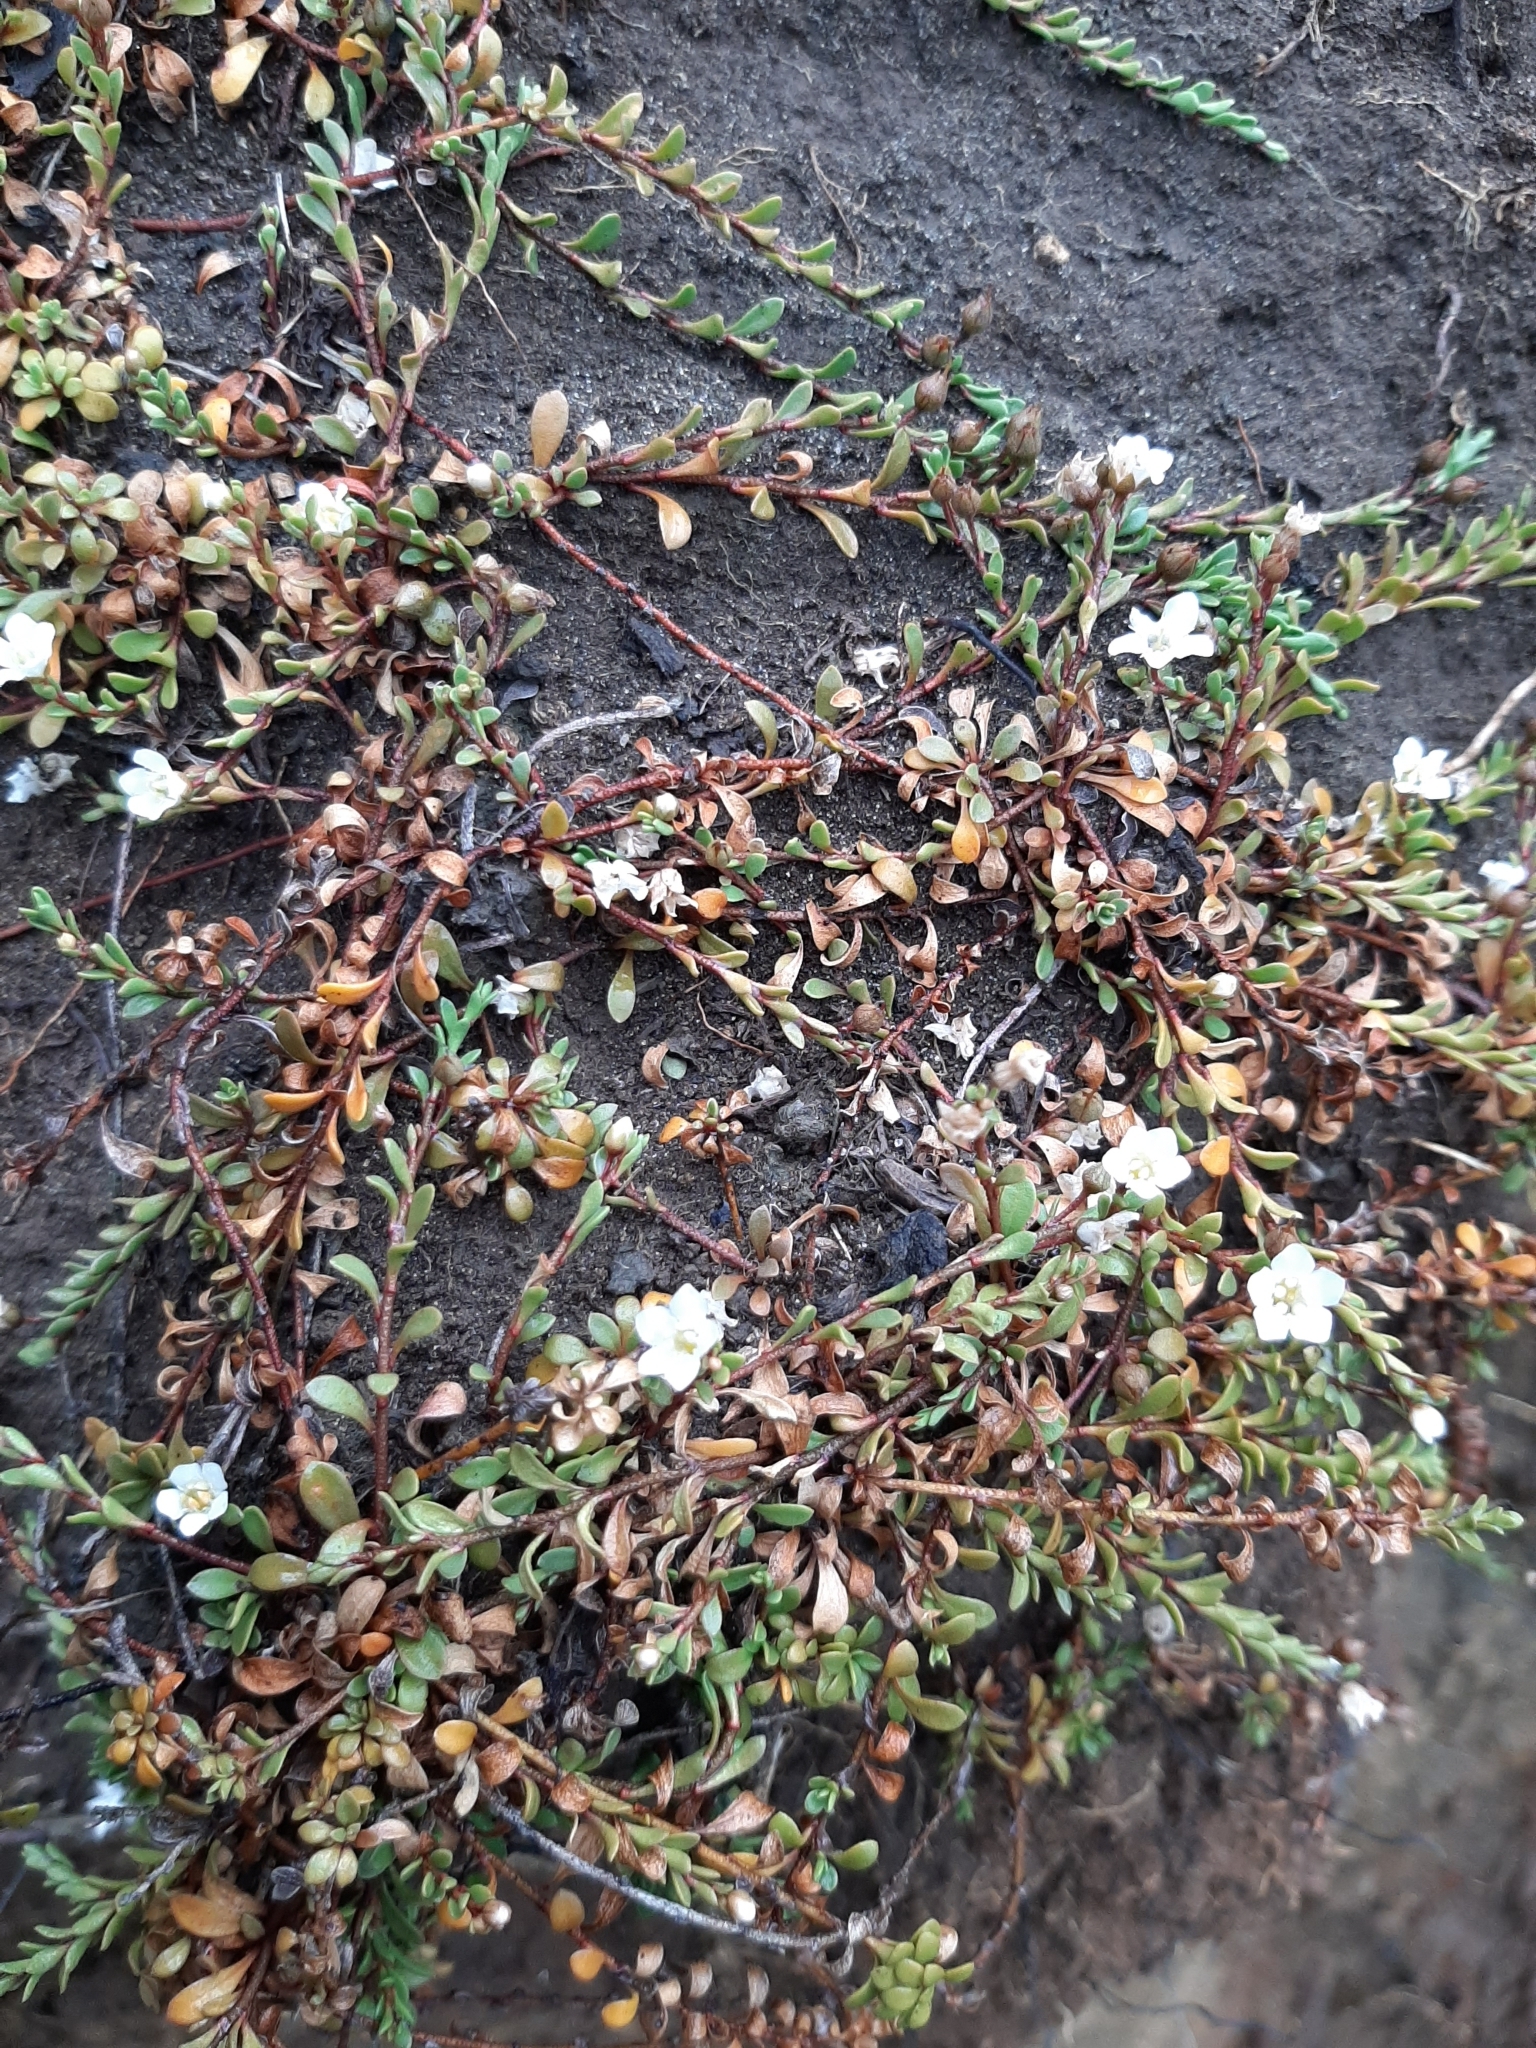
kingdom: Plantae
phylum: Tracheophyta
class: Magnoliopsida
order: Ericales
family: Primulaceae
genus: Samolus
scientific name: Samolus repens
